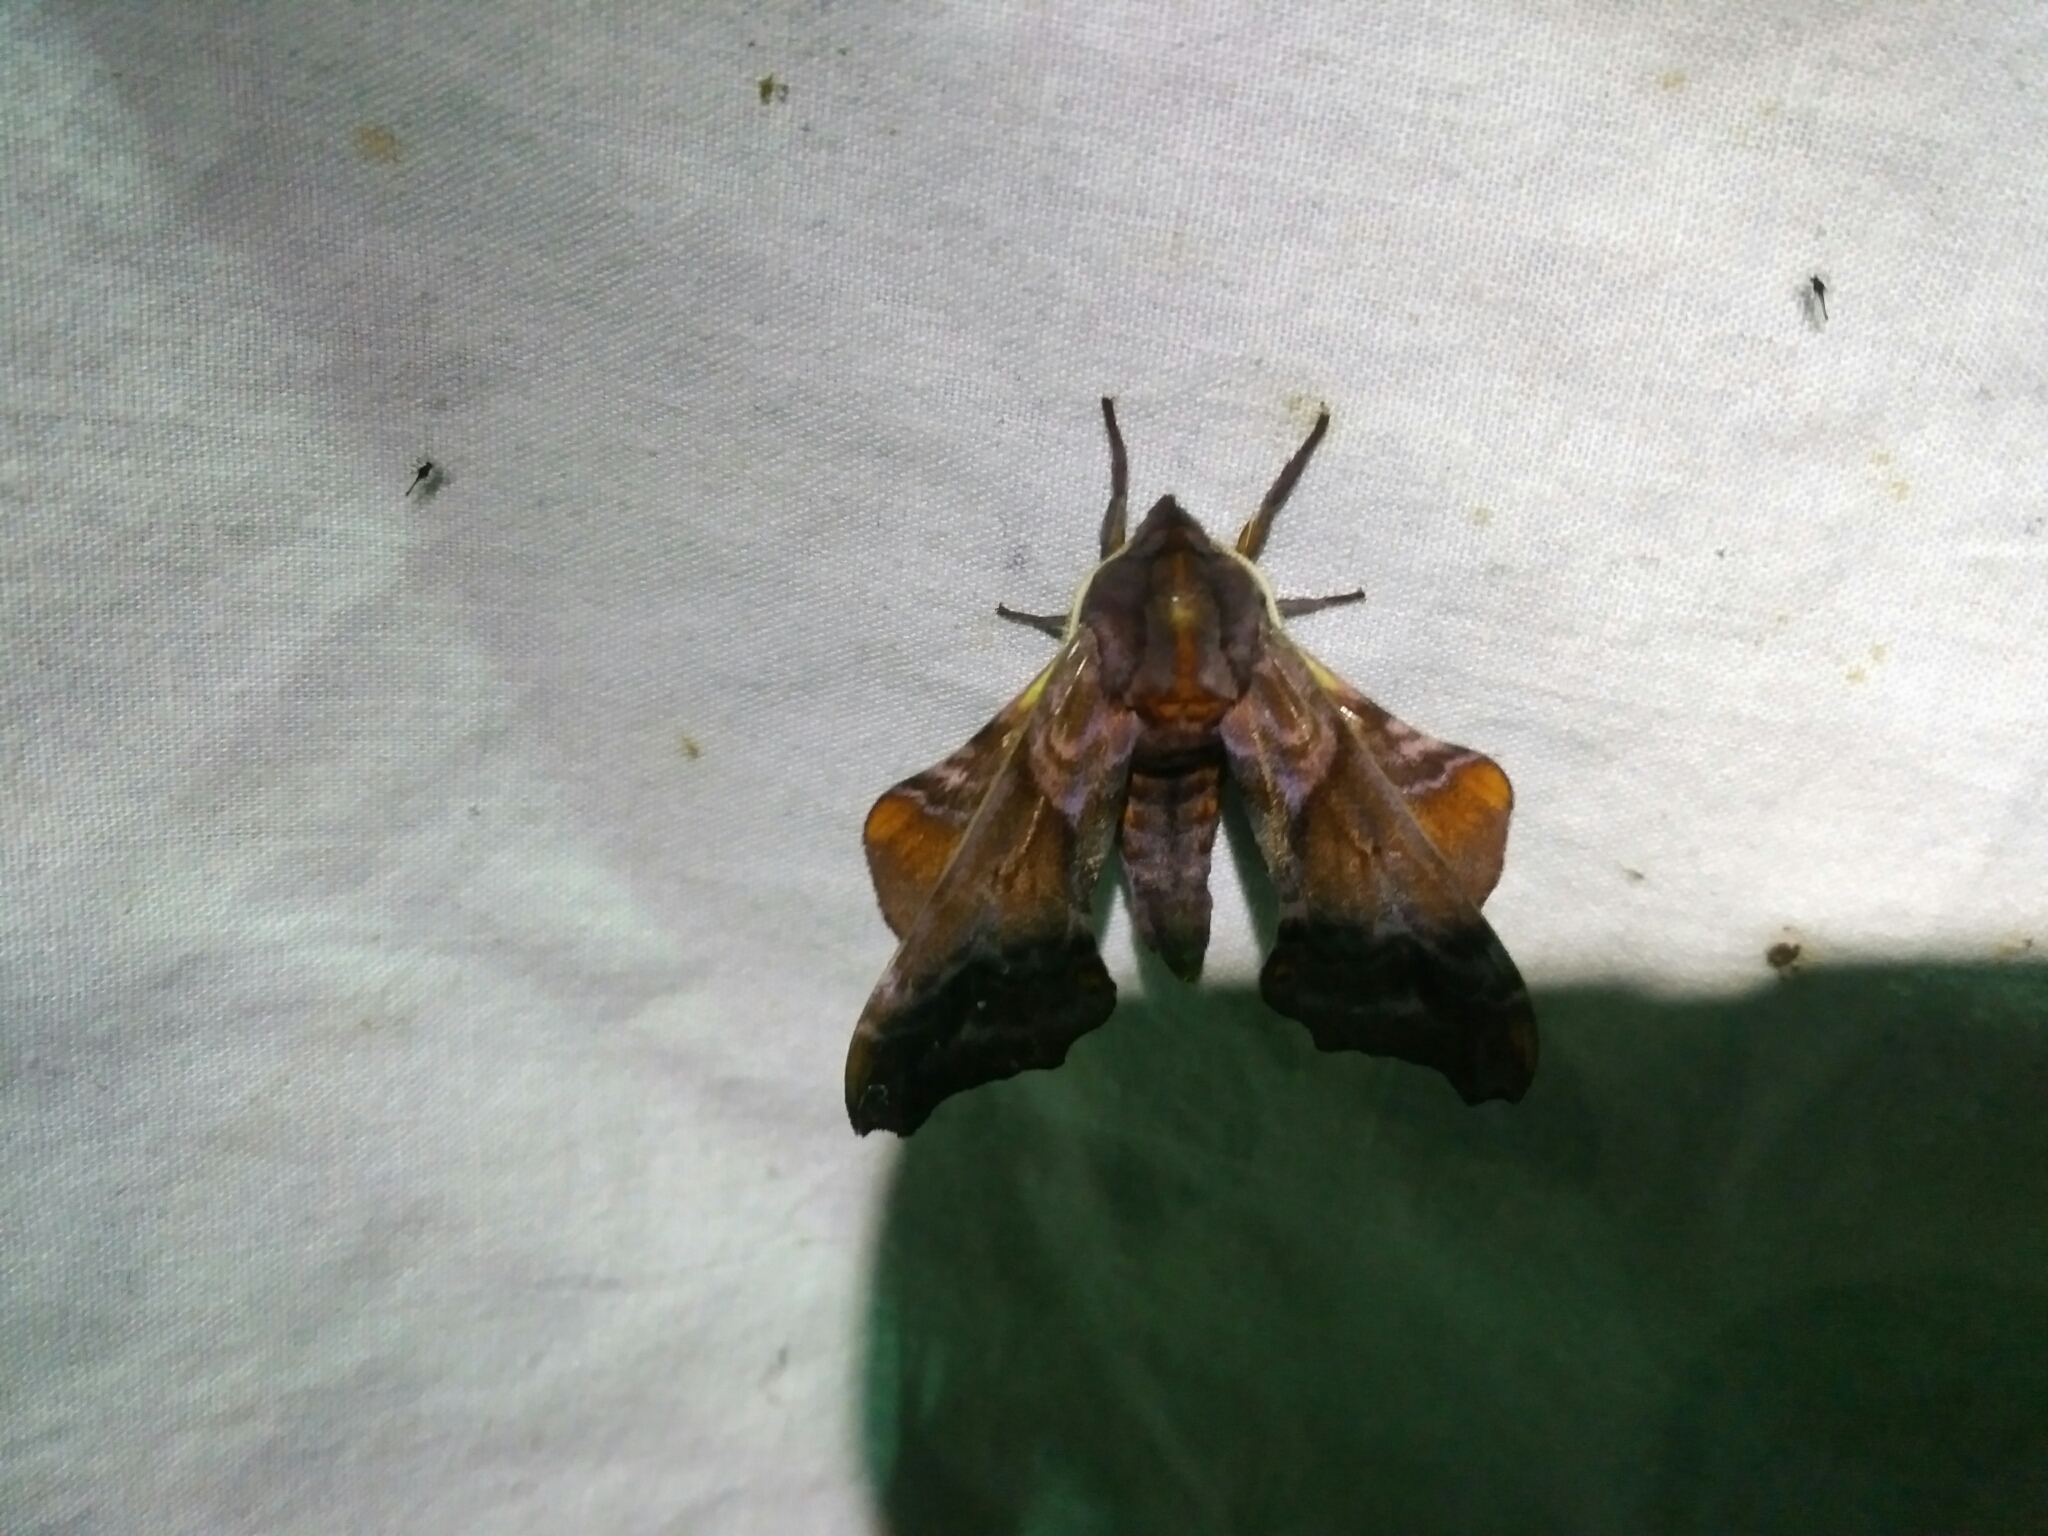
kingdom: Animalia
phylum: Arthropoda
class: Insecta
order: Lepidoptera
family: Sphingidae
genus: Paonias
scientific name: Paonias myops
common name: Small-eyed sphinx
